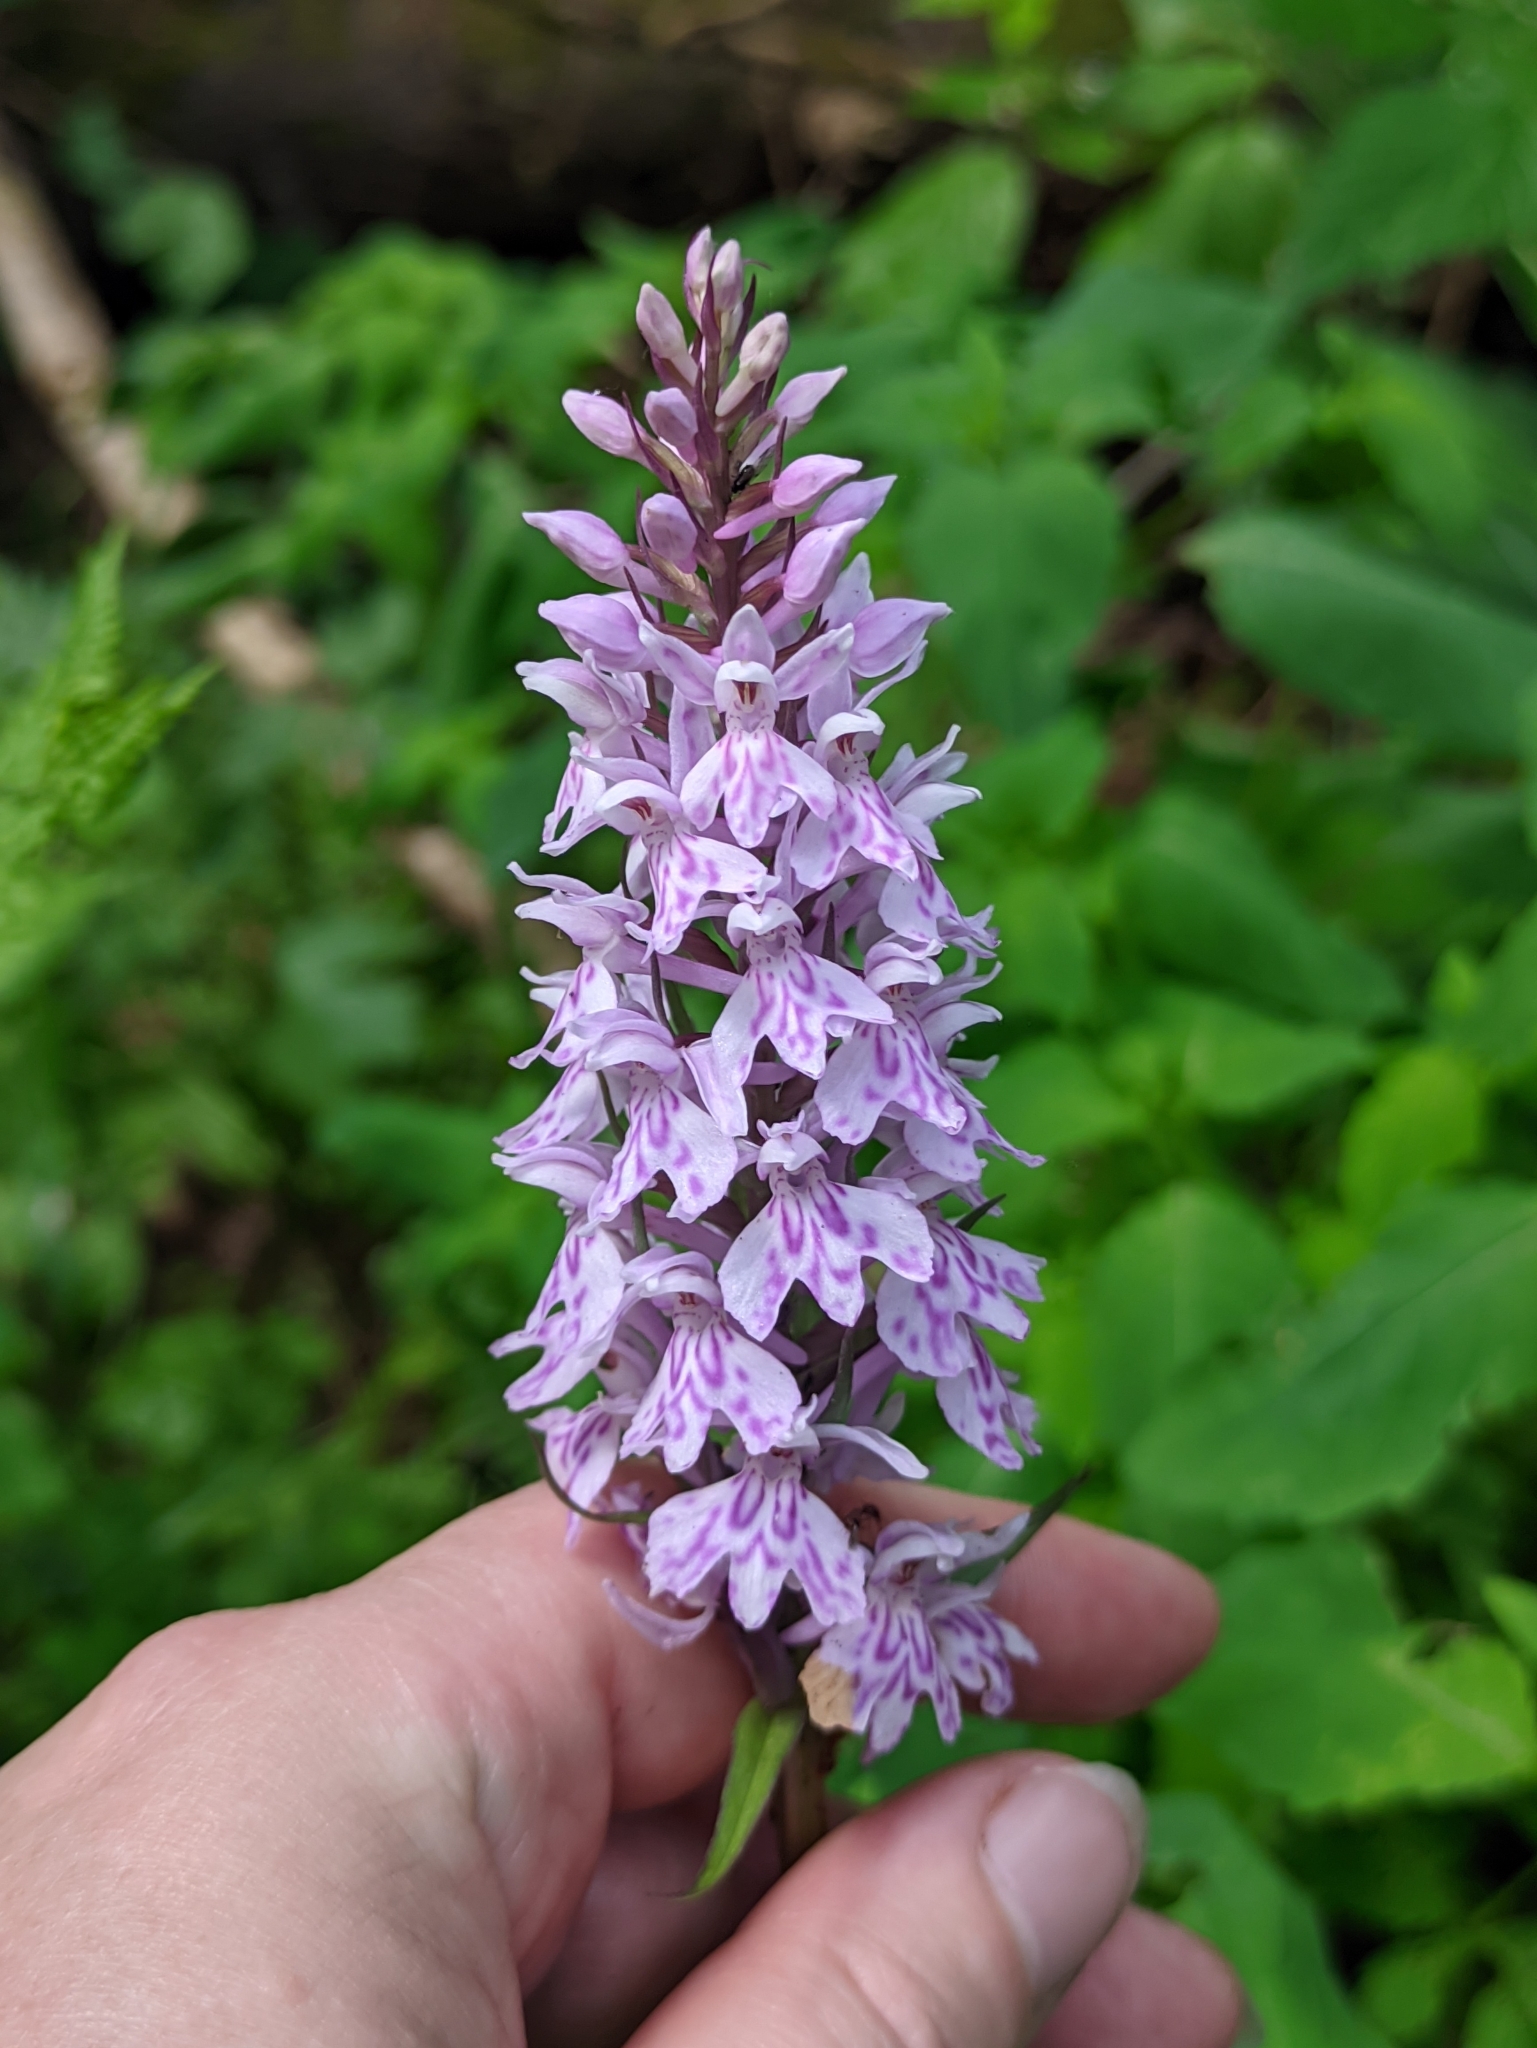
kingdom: Plantae
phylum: Tracheophyta
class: Liliopsida
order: Asparagales
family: Orchidaceae
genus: Dactylorhiza
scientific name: Dactylorhiza maculata
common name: Heath spotted-orchid
